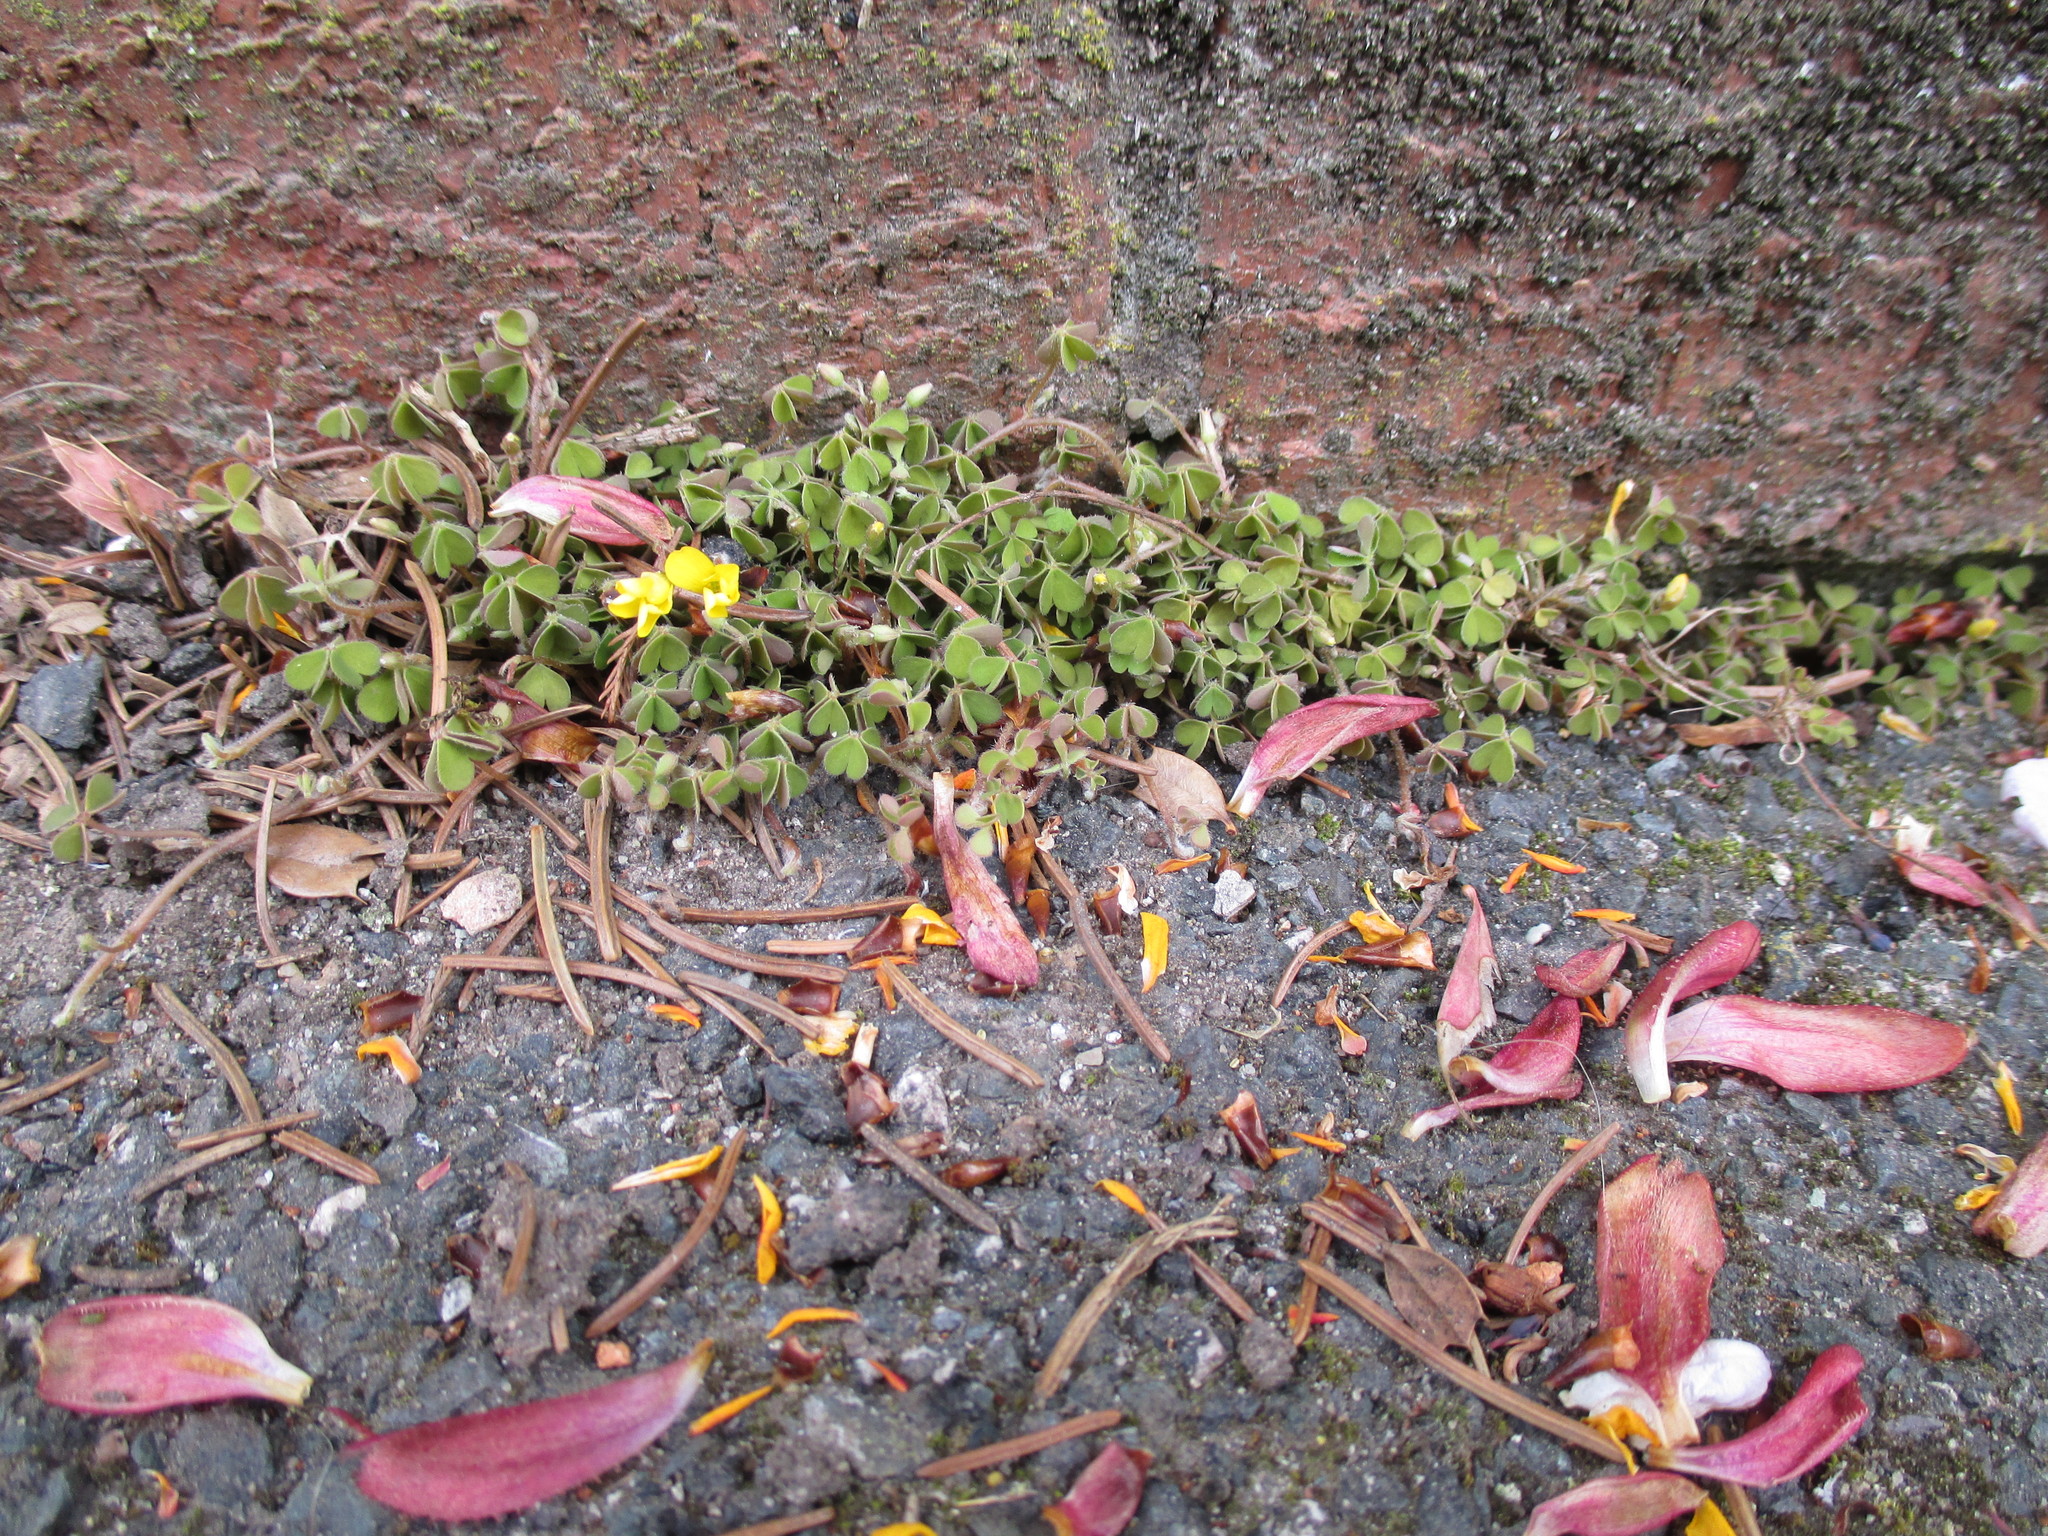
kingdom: Plantae
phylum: Tracheophyta
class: Magnoliopsida
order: Oxalidales
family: Oxalidaceae
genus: Oxalis
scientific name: Oxalis exilis
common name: Least yellow-sorrel
